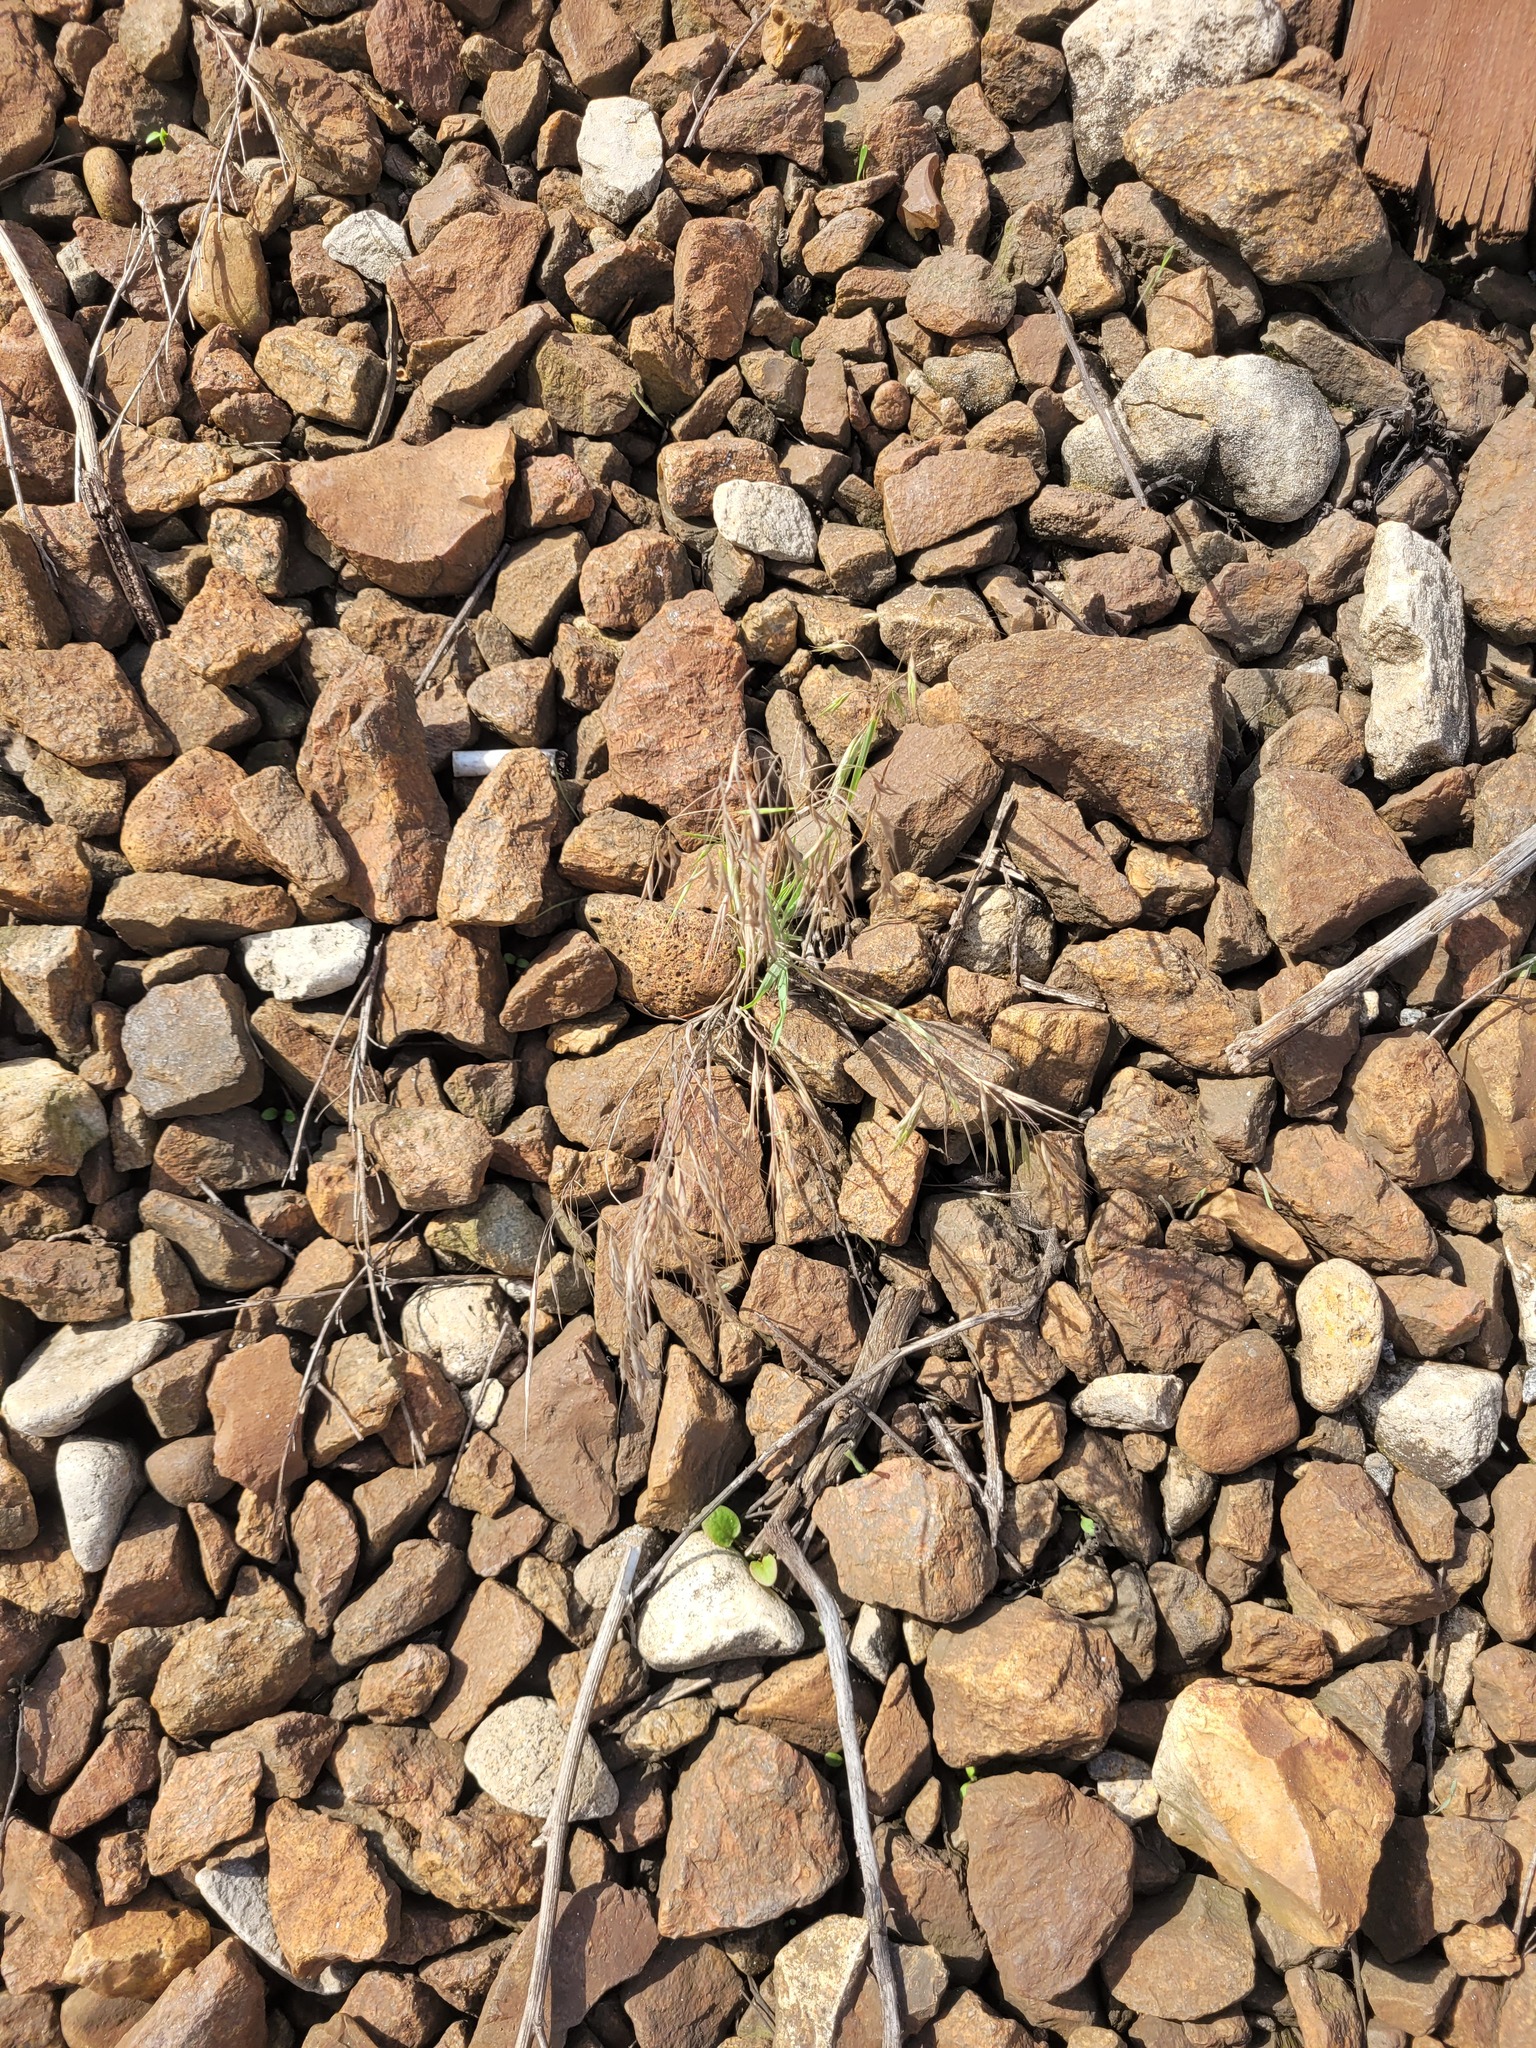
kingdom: Plantae
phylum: Tracheophyta
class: Liliopsida
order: Poales
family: Poaceae
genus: Bromus
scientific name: Bromus tectorum
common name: Cheatgrass
